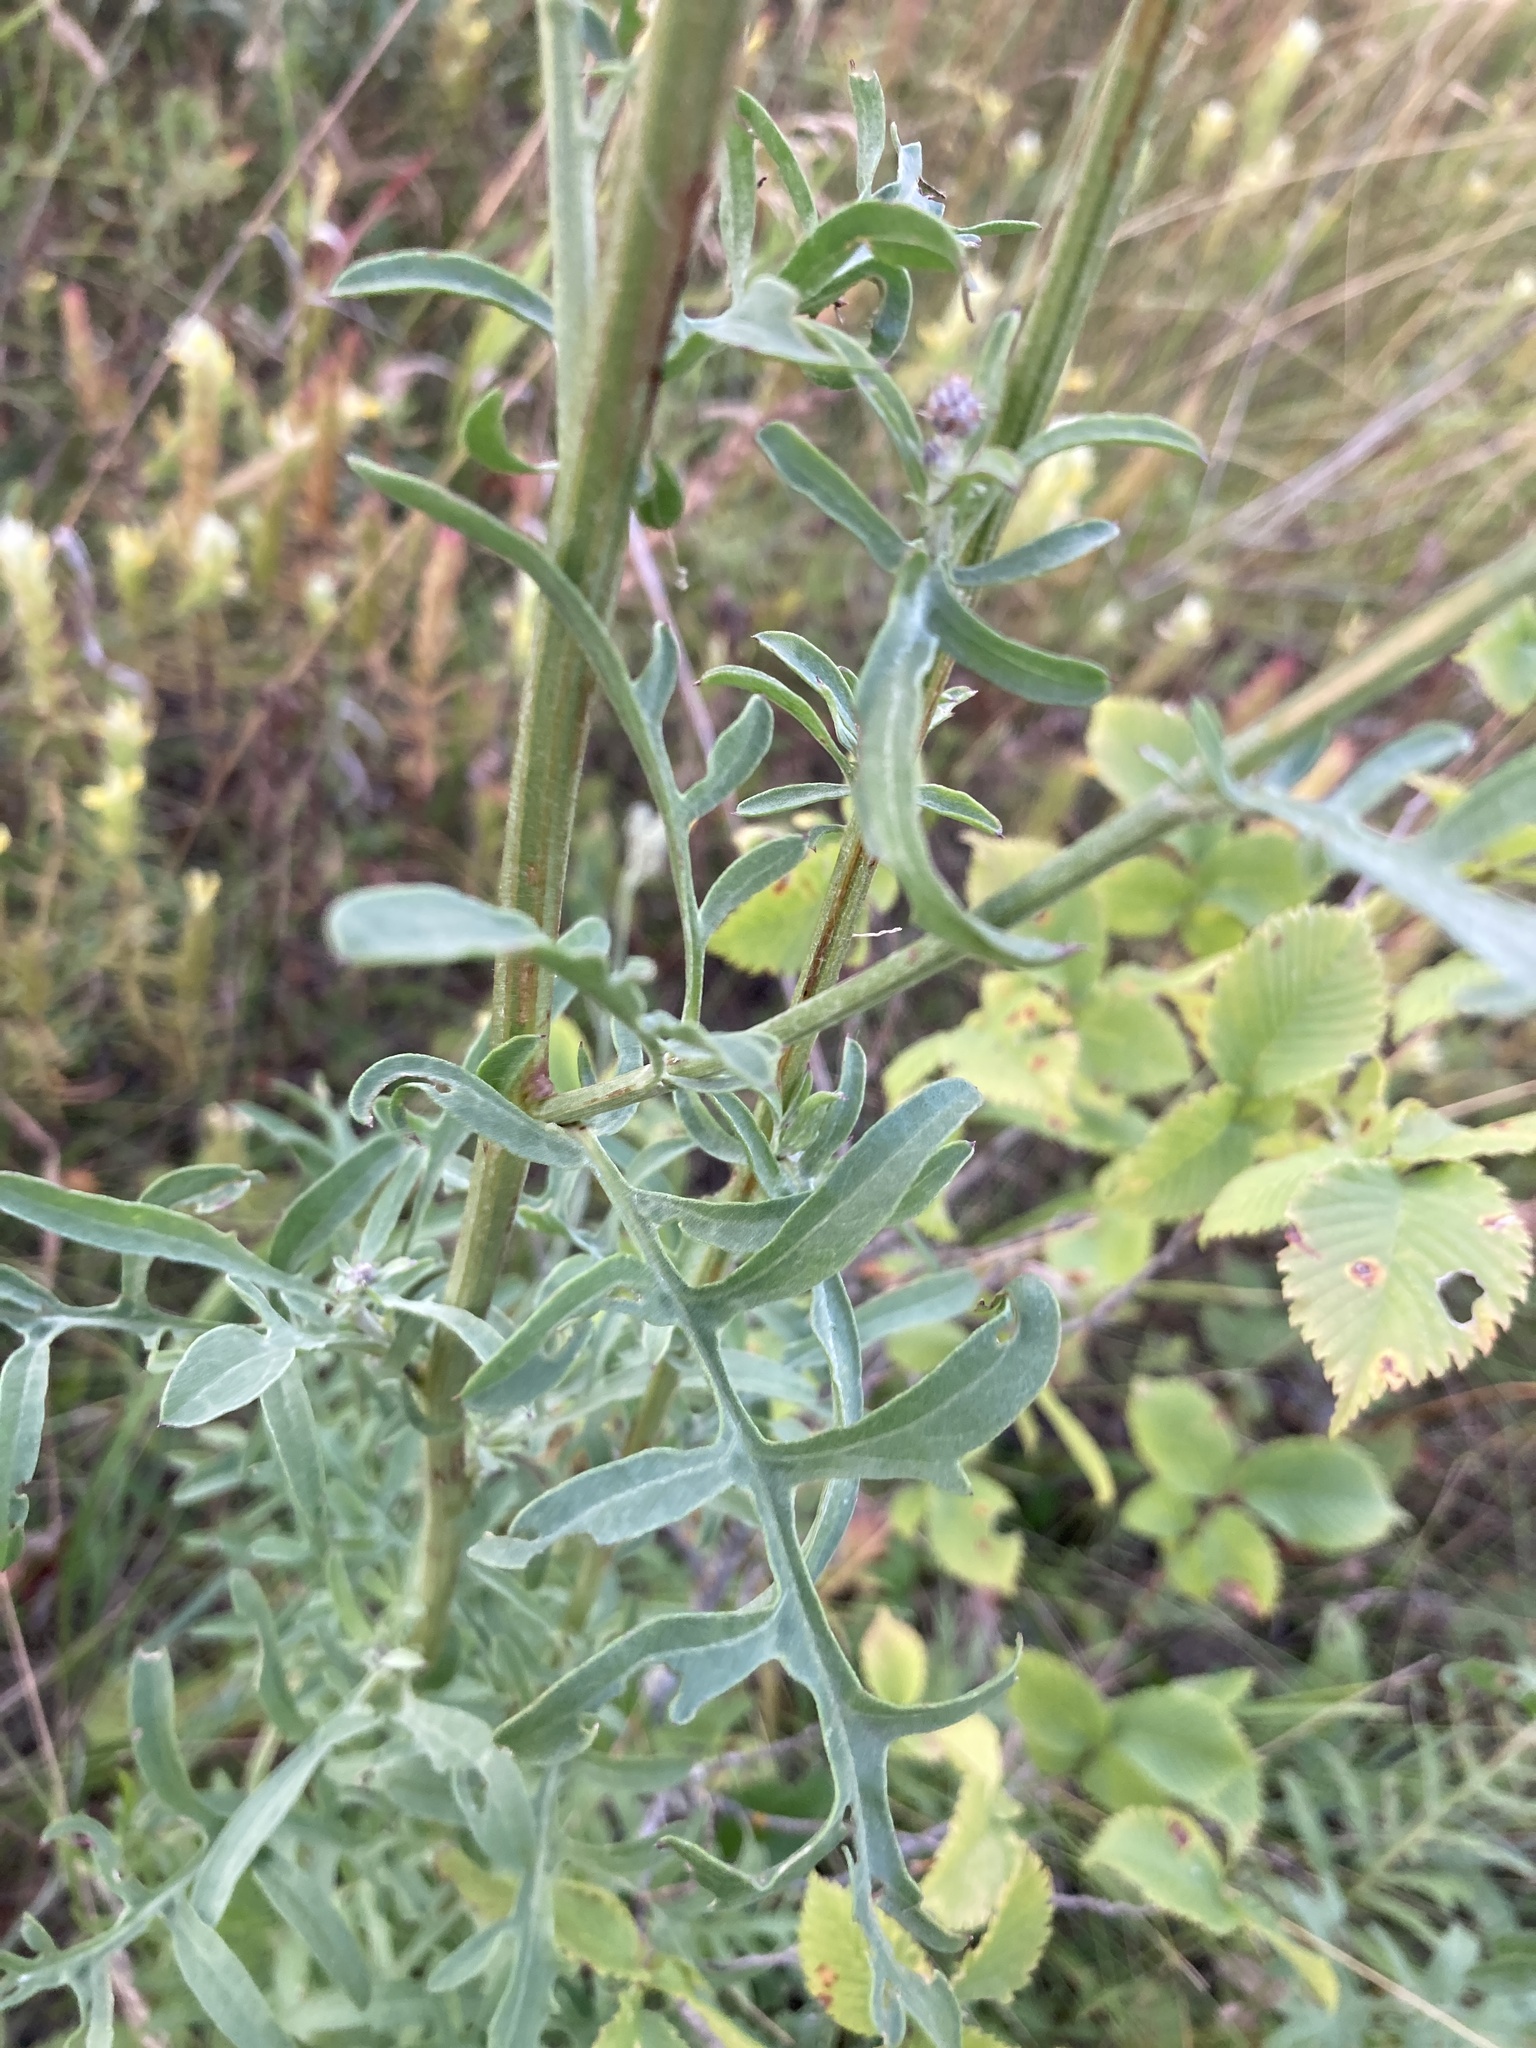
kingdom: Plantae
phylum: Tracheophyta
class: Magnoliopsida
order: Asterales
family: Asteraceae
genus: Centaurea
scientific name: Centaurea scabiosa
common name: Greater knapweed
